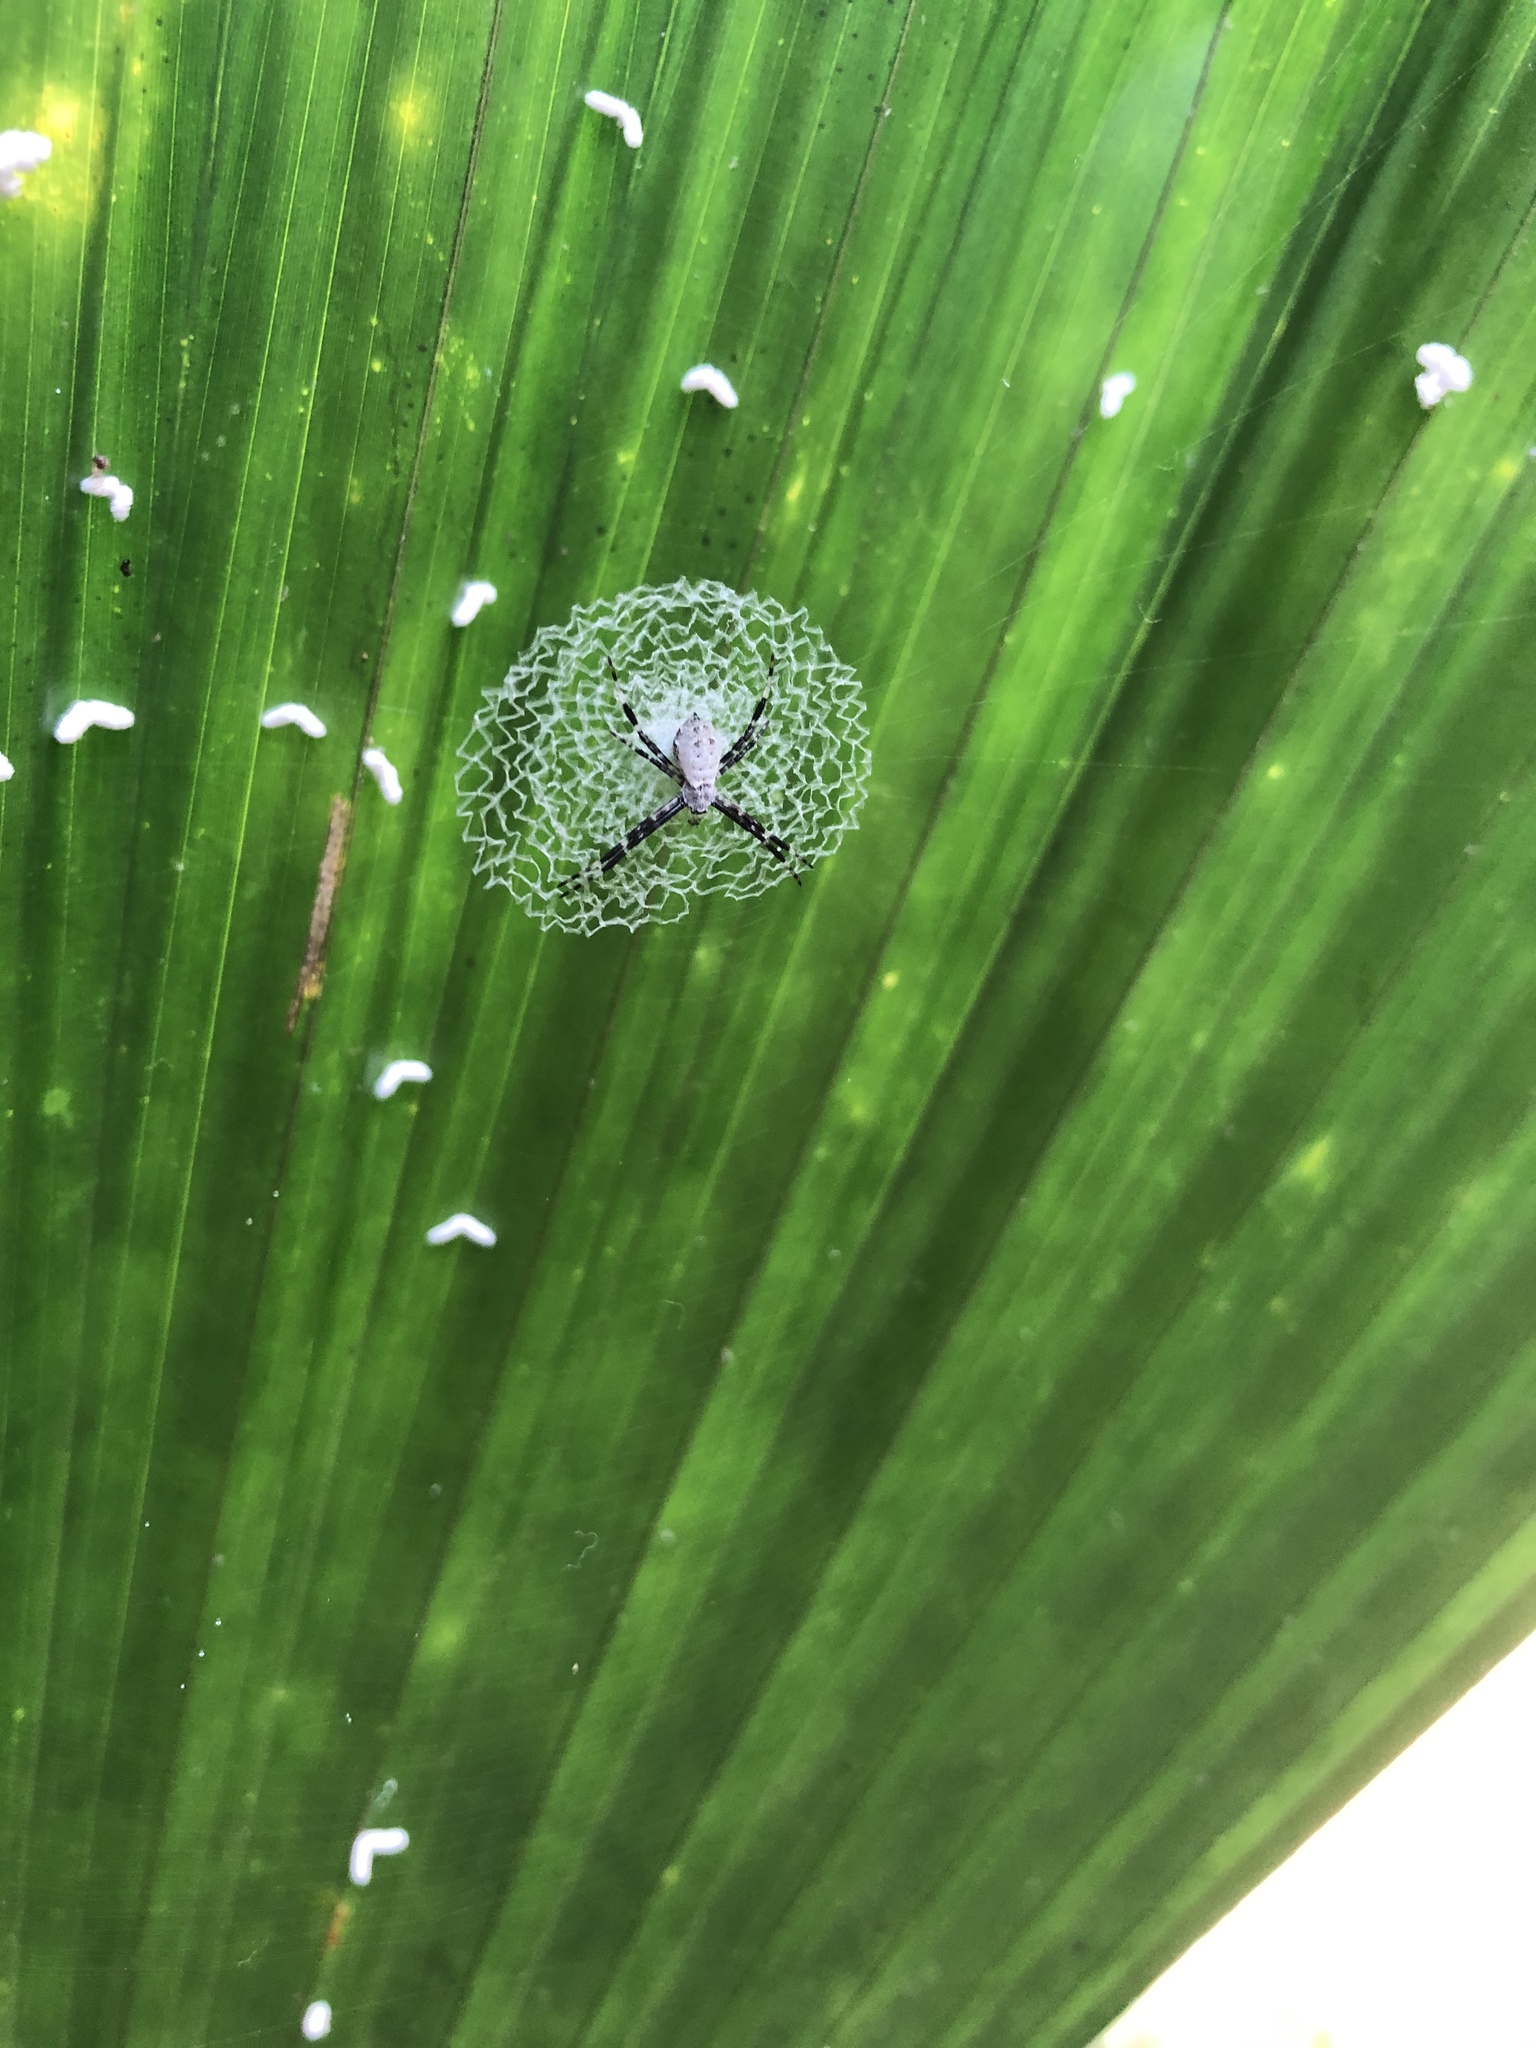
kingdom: Animalia
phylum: Arthropoda
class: Arachnida
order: Araneae
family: Araneidae
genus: Argiope
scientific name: Argiope submaronica
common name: Orb weavers
